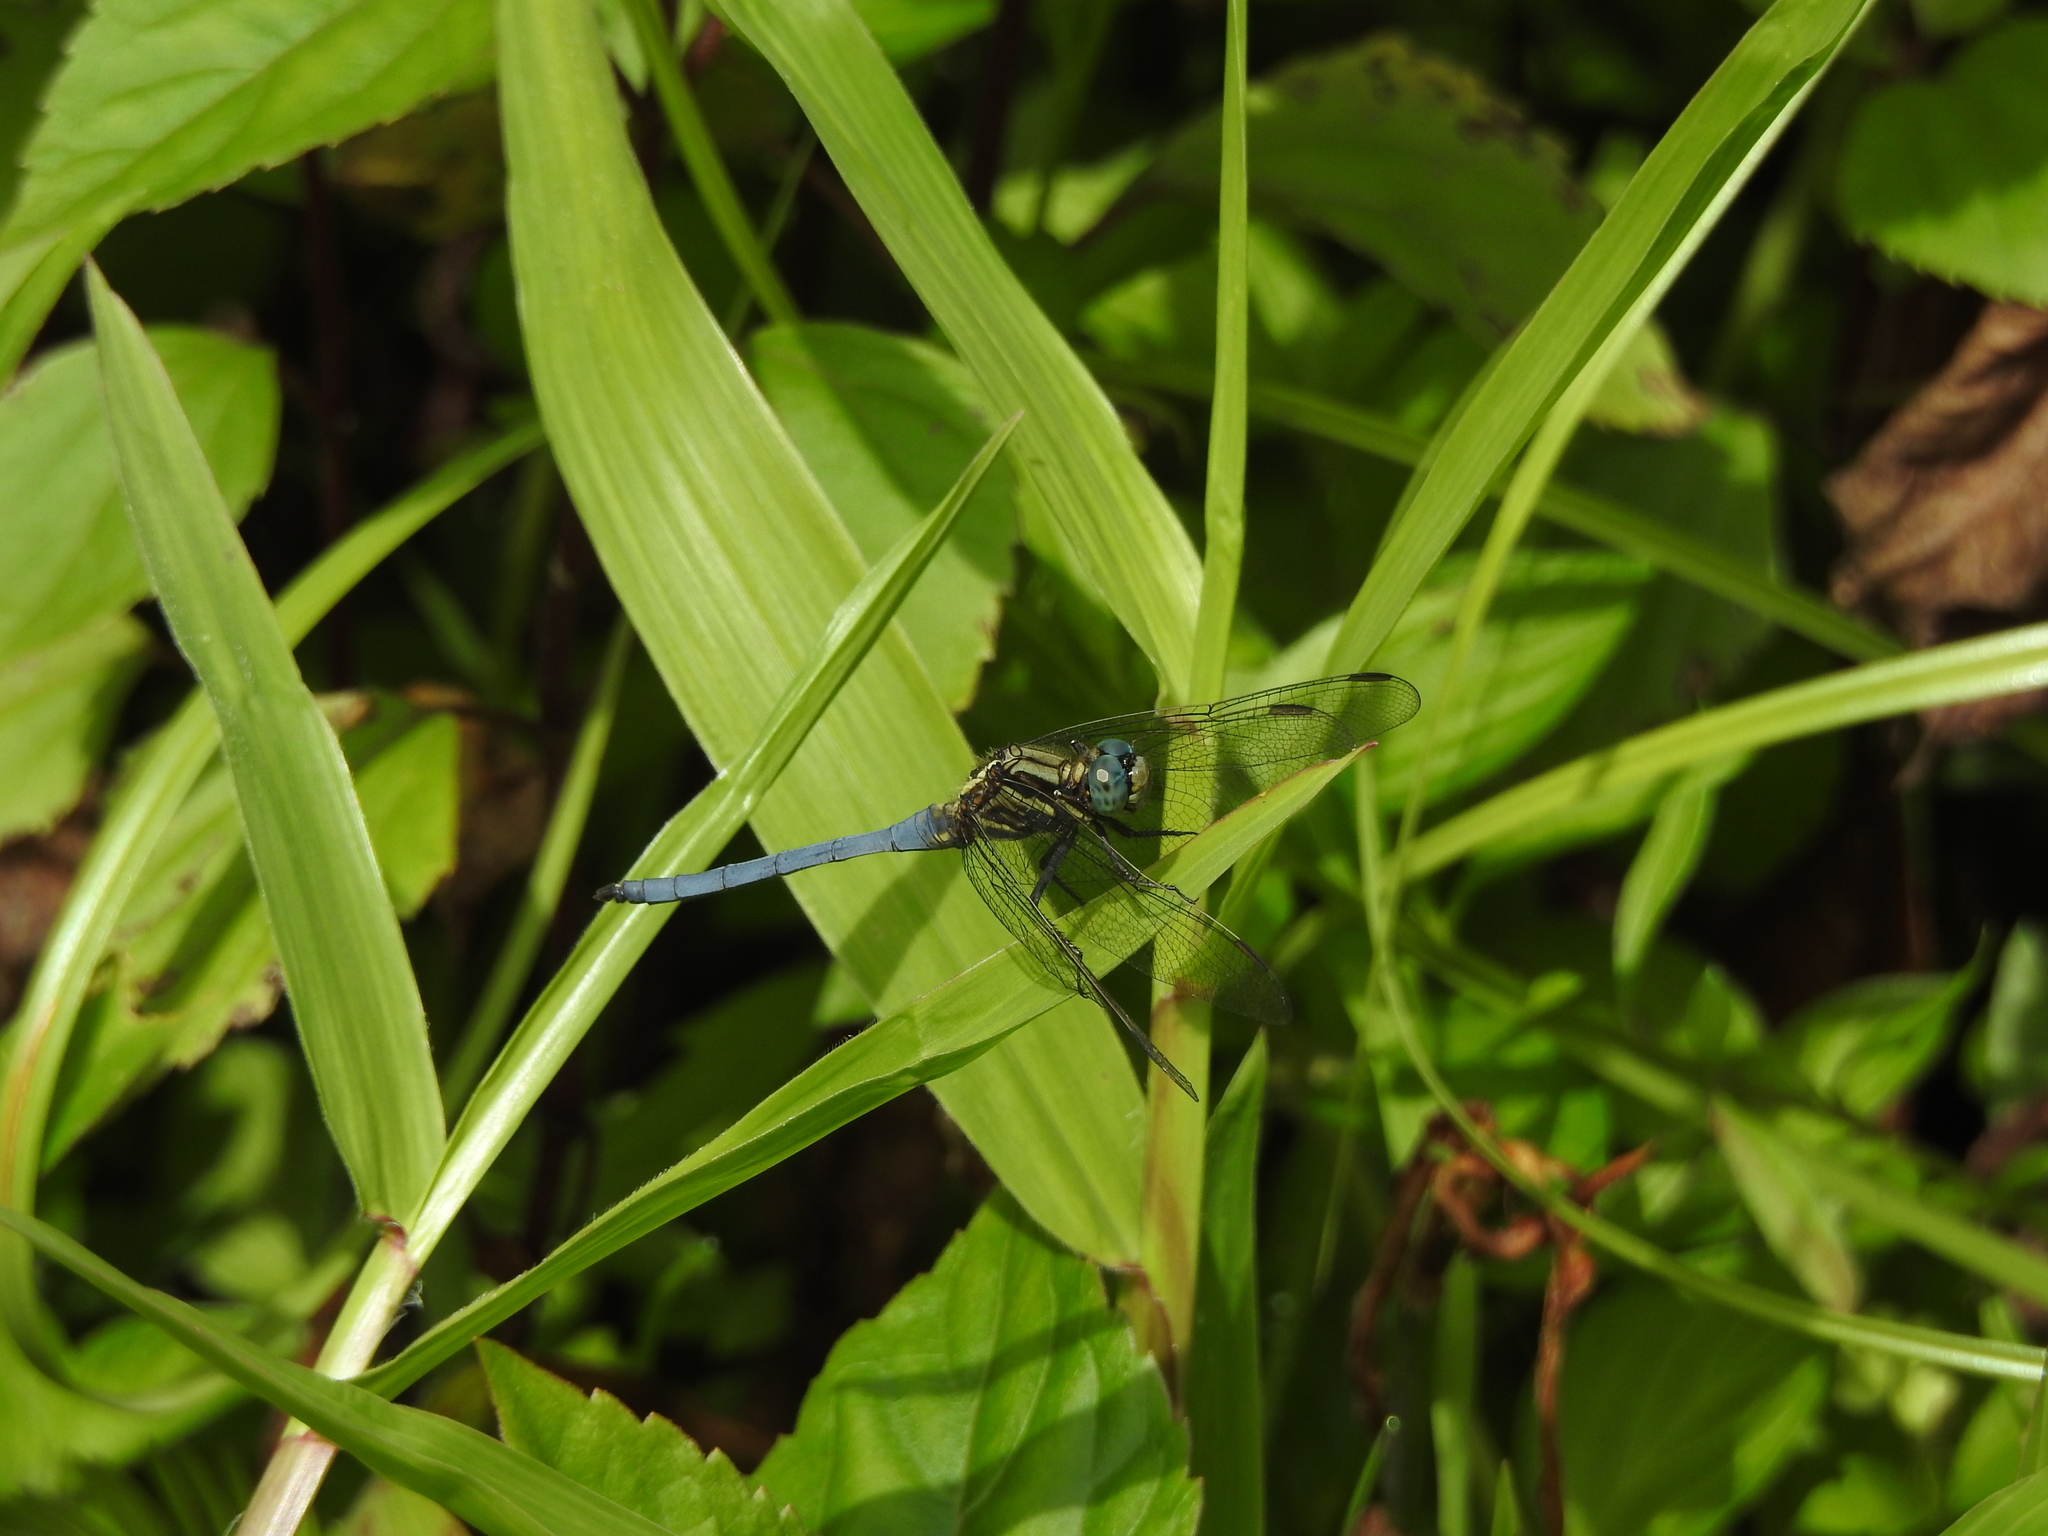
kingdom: Animalia
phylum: Arthropoda
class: Insecta
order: Odonata
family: Libellulidae
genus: Orthetrum
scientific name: Orthetrum luzonicum
